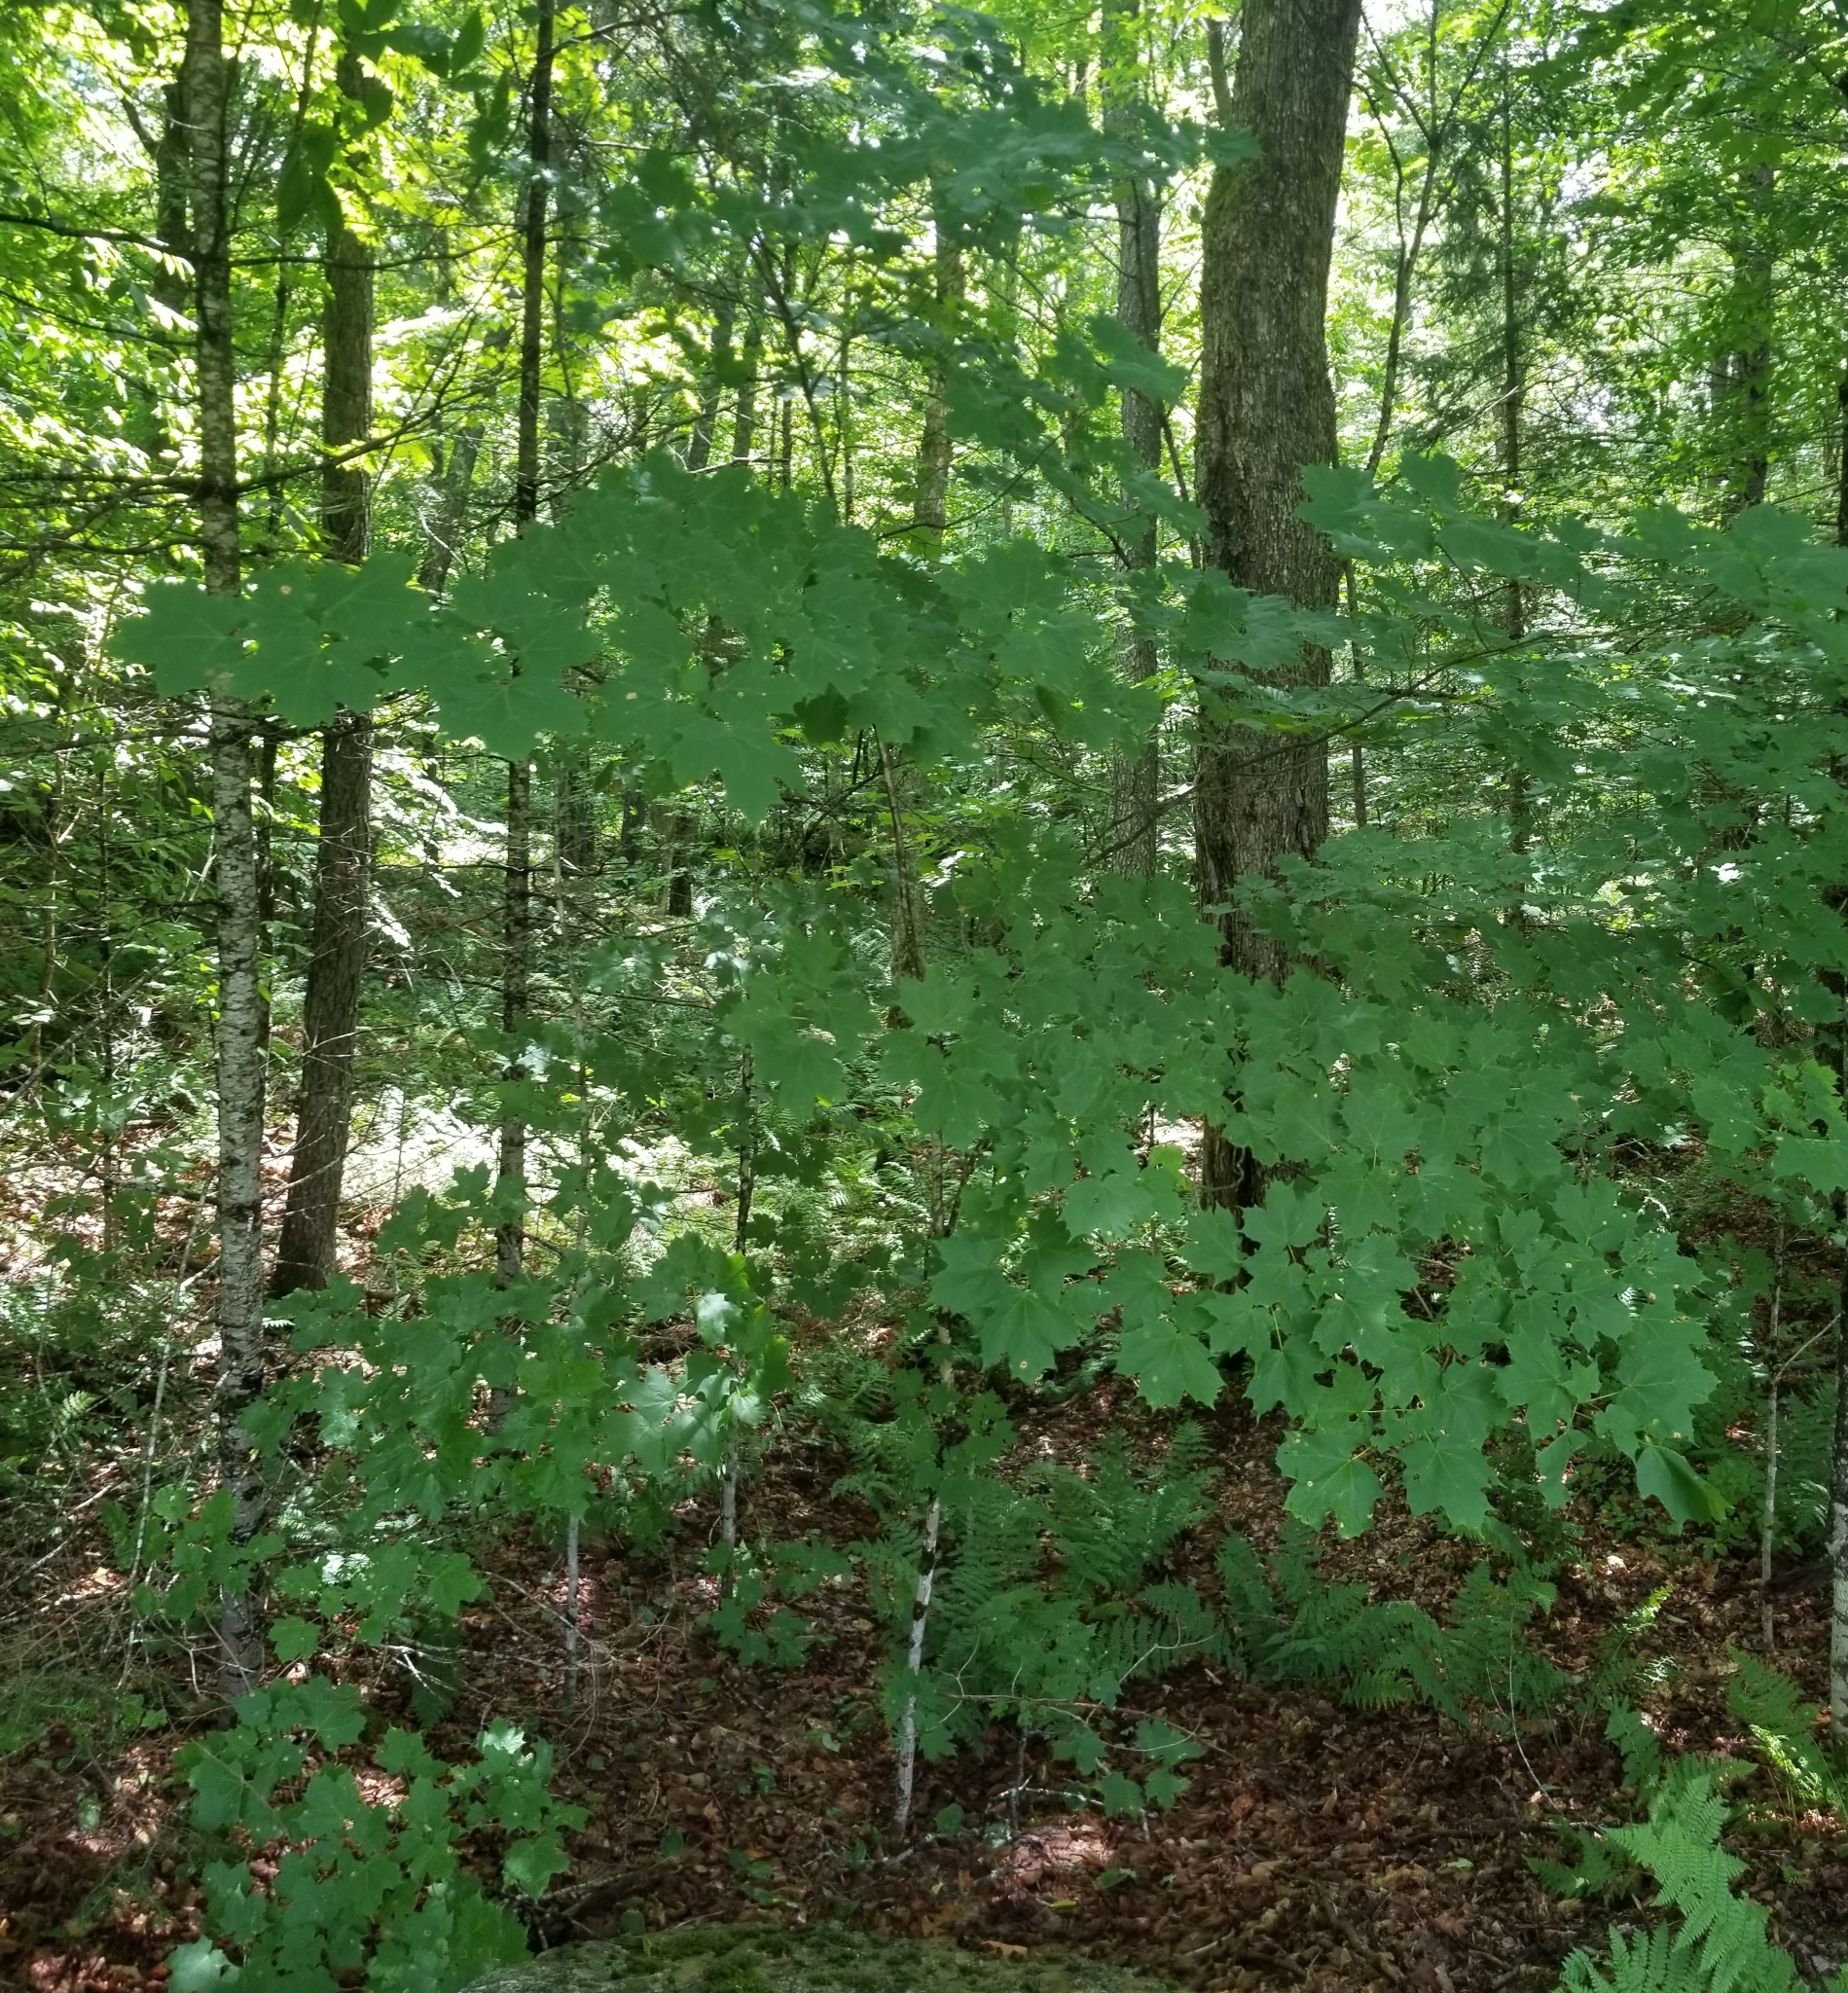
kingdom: Plantae
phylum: Tracheophyta
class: Magnoliopsida
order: Sapindales
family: Sapindaceae
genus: Acer
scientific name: Acer saccharum
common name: Sugar maple
